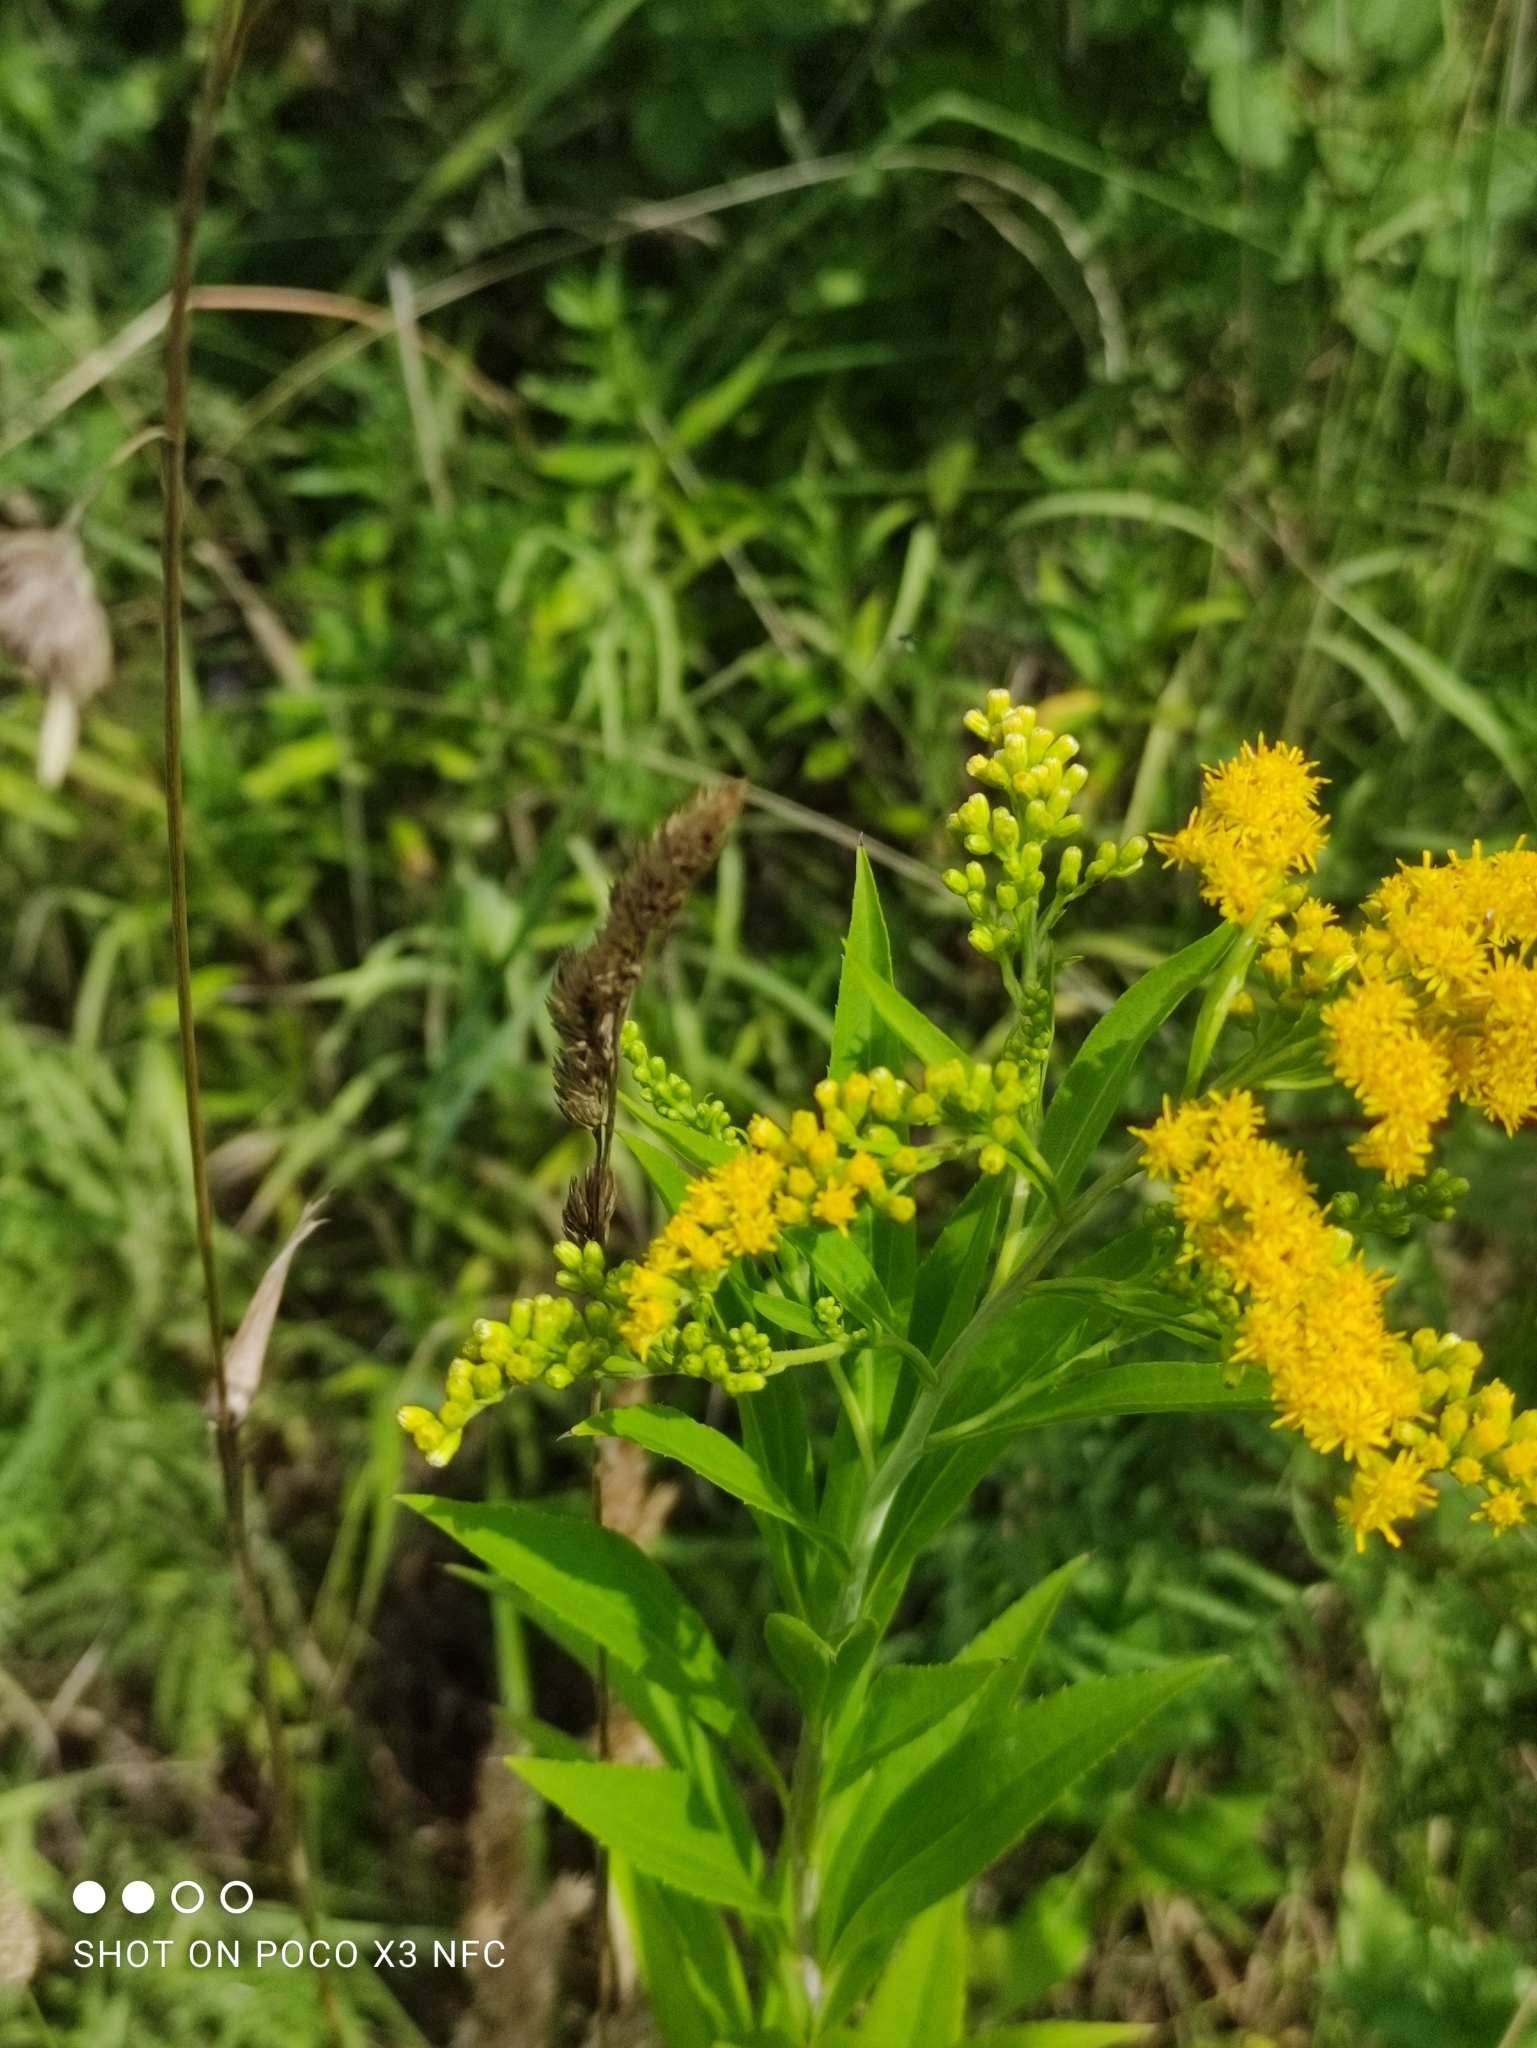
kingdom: Plantae
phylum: Tracheophyta
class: Magnoliopsida
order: Asterales
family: Asteraceae
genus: Solidago
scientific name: Solidago gigantea
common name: Giant goldenrod
